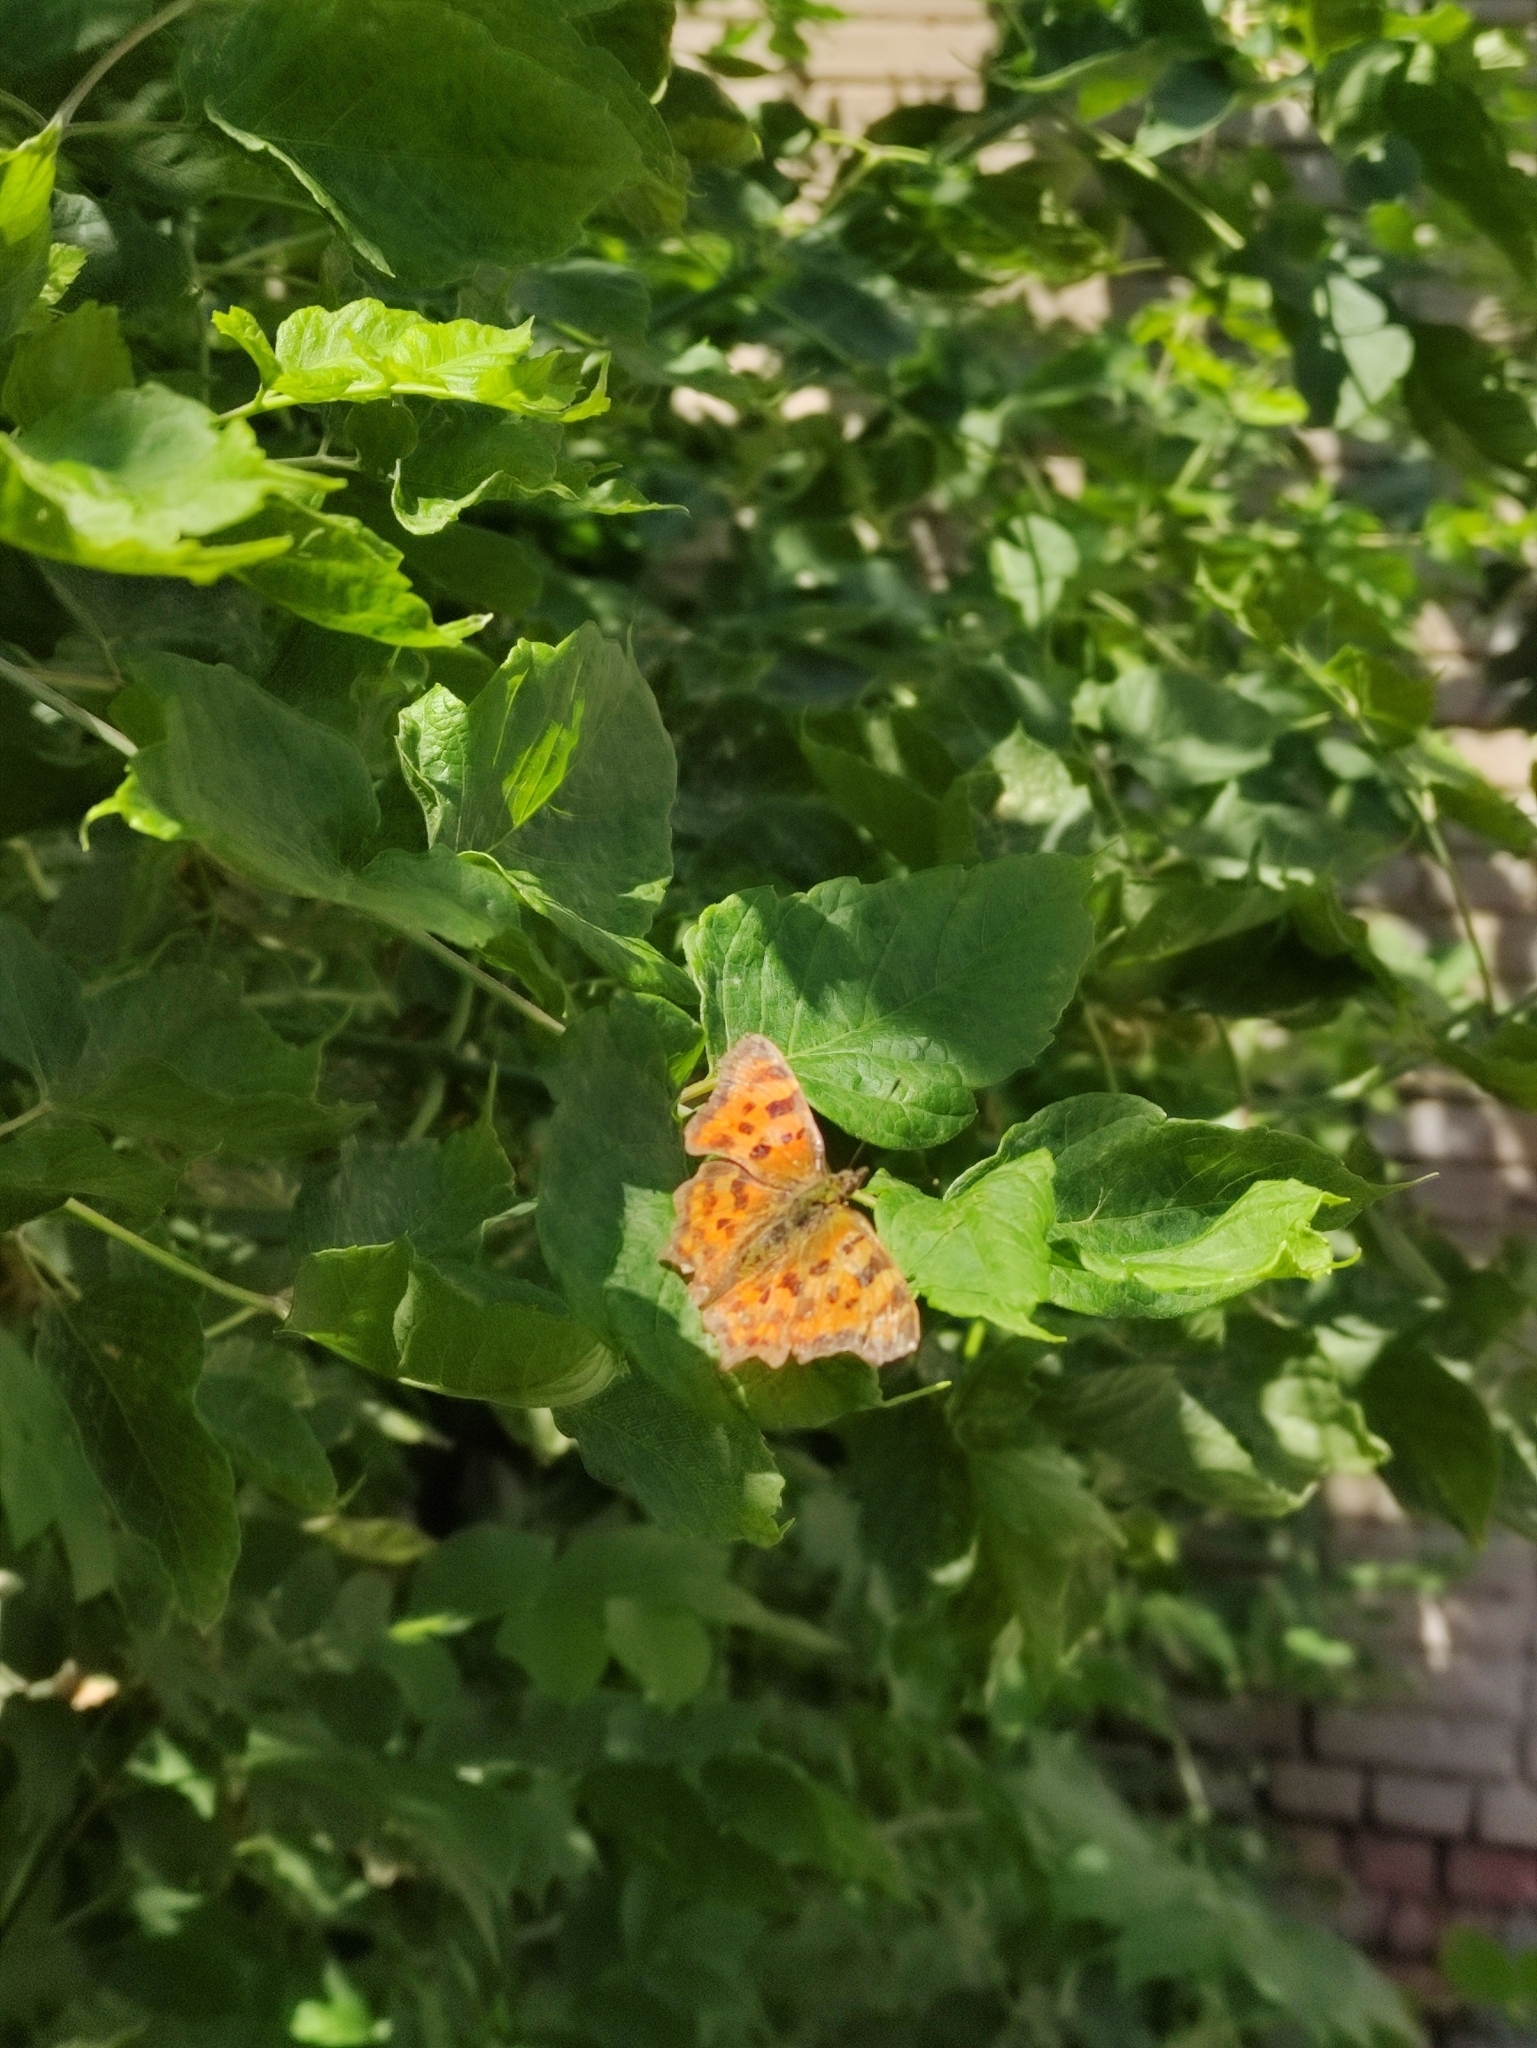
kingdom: Animalia
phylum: Arthropoda
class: Insecta
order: Lepidoptera
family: Nymphalidae
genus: Polygonia
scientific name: Polygonia c-album
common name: Comma
